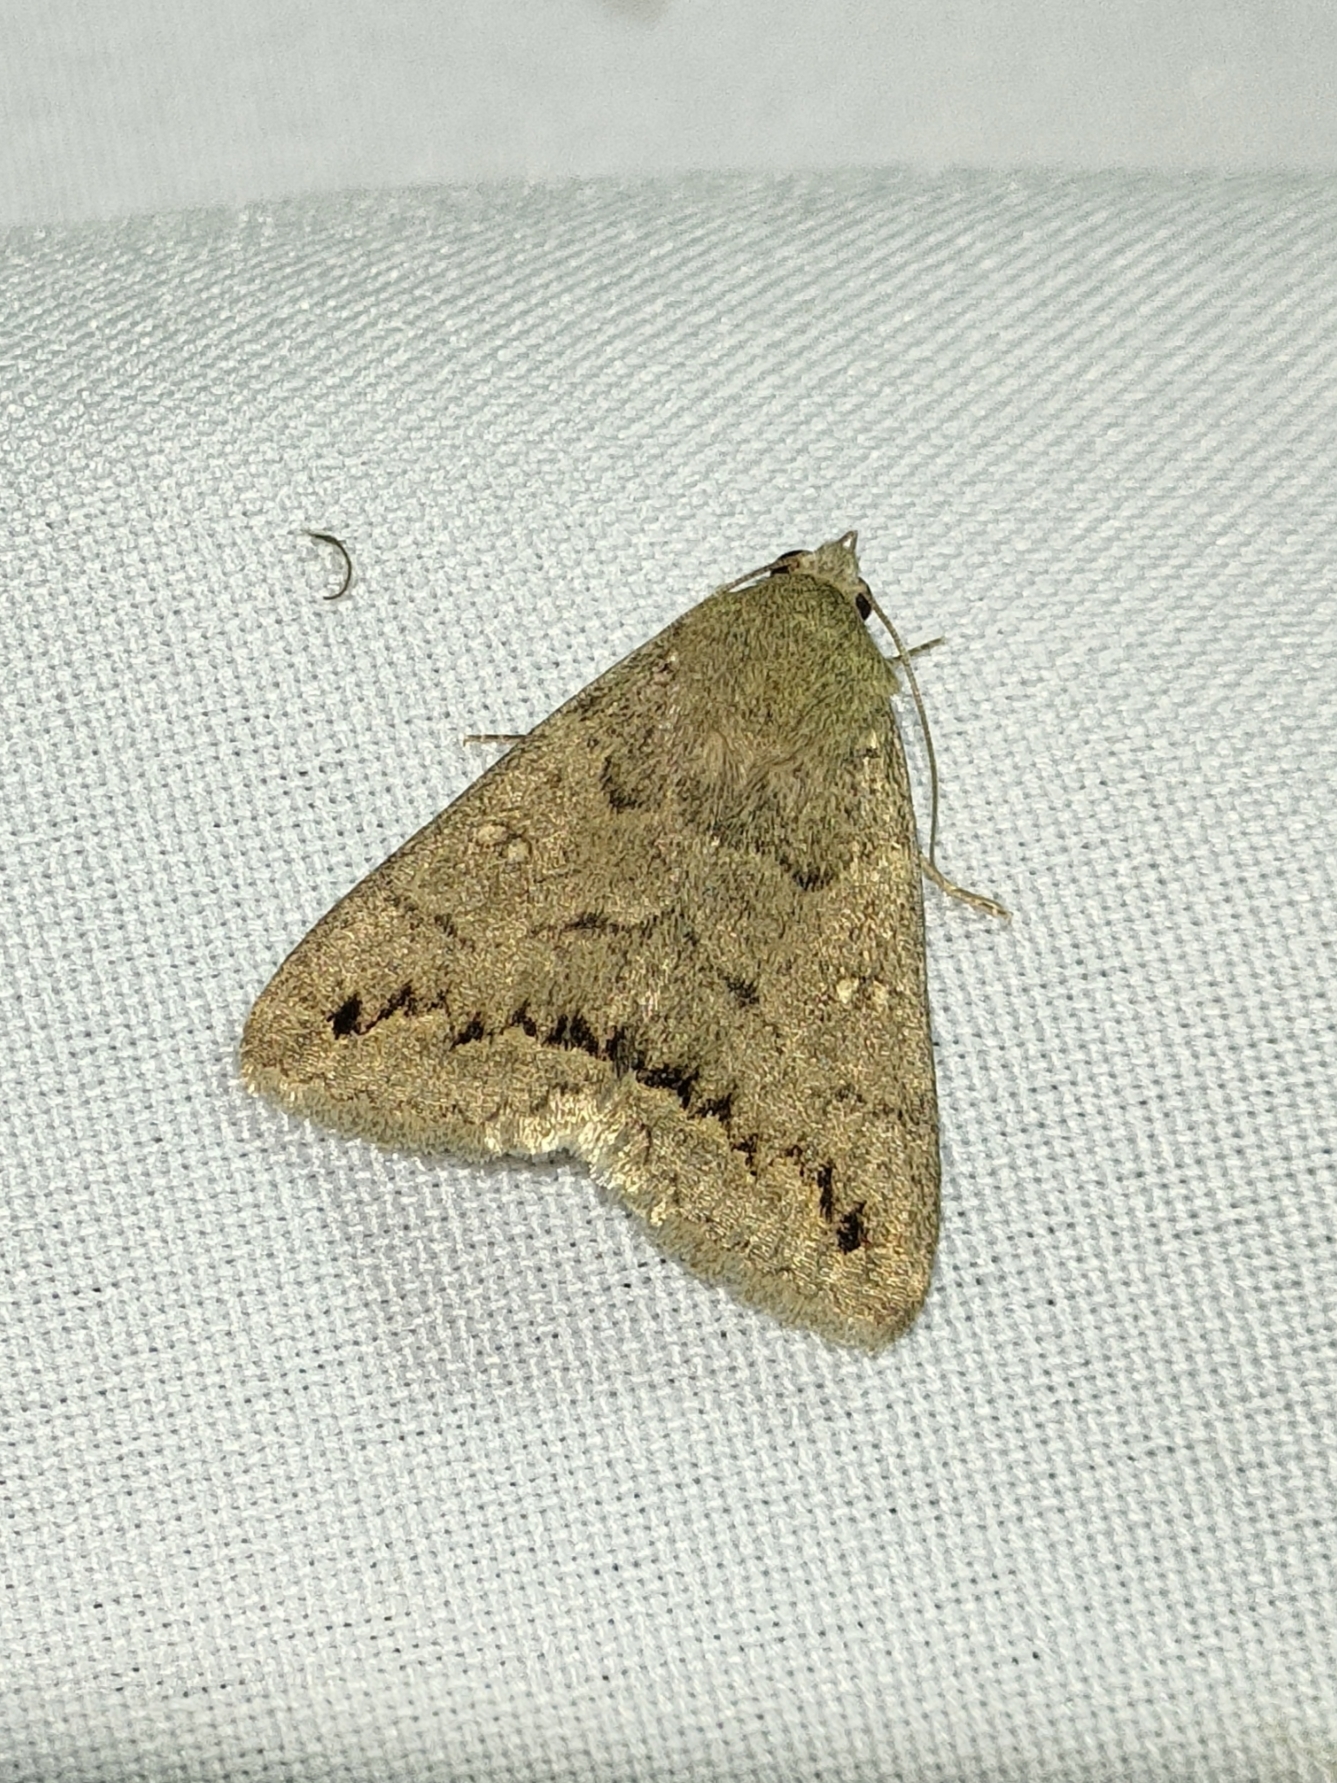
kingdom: Animalia
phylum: Arthropoda
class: Insecta
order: Lepidoptera
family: Erebidae
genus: Clytie
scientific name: Clytie illunaris
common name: Trent double-stripe
